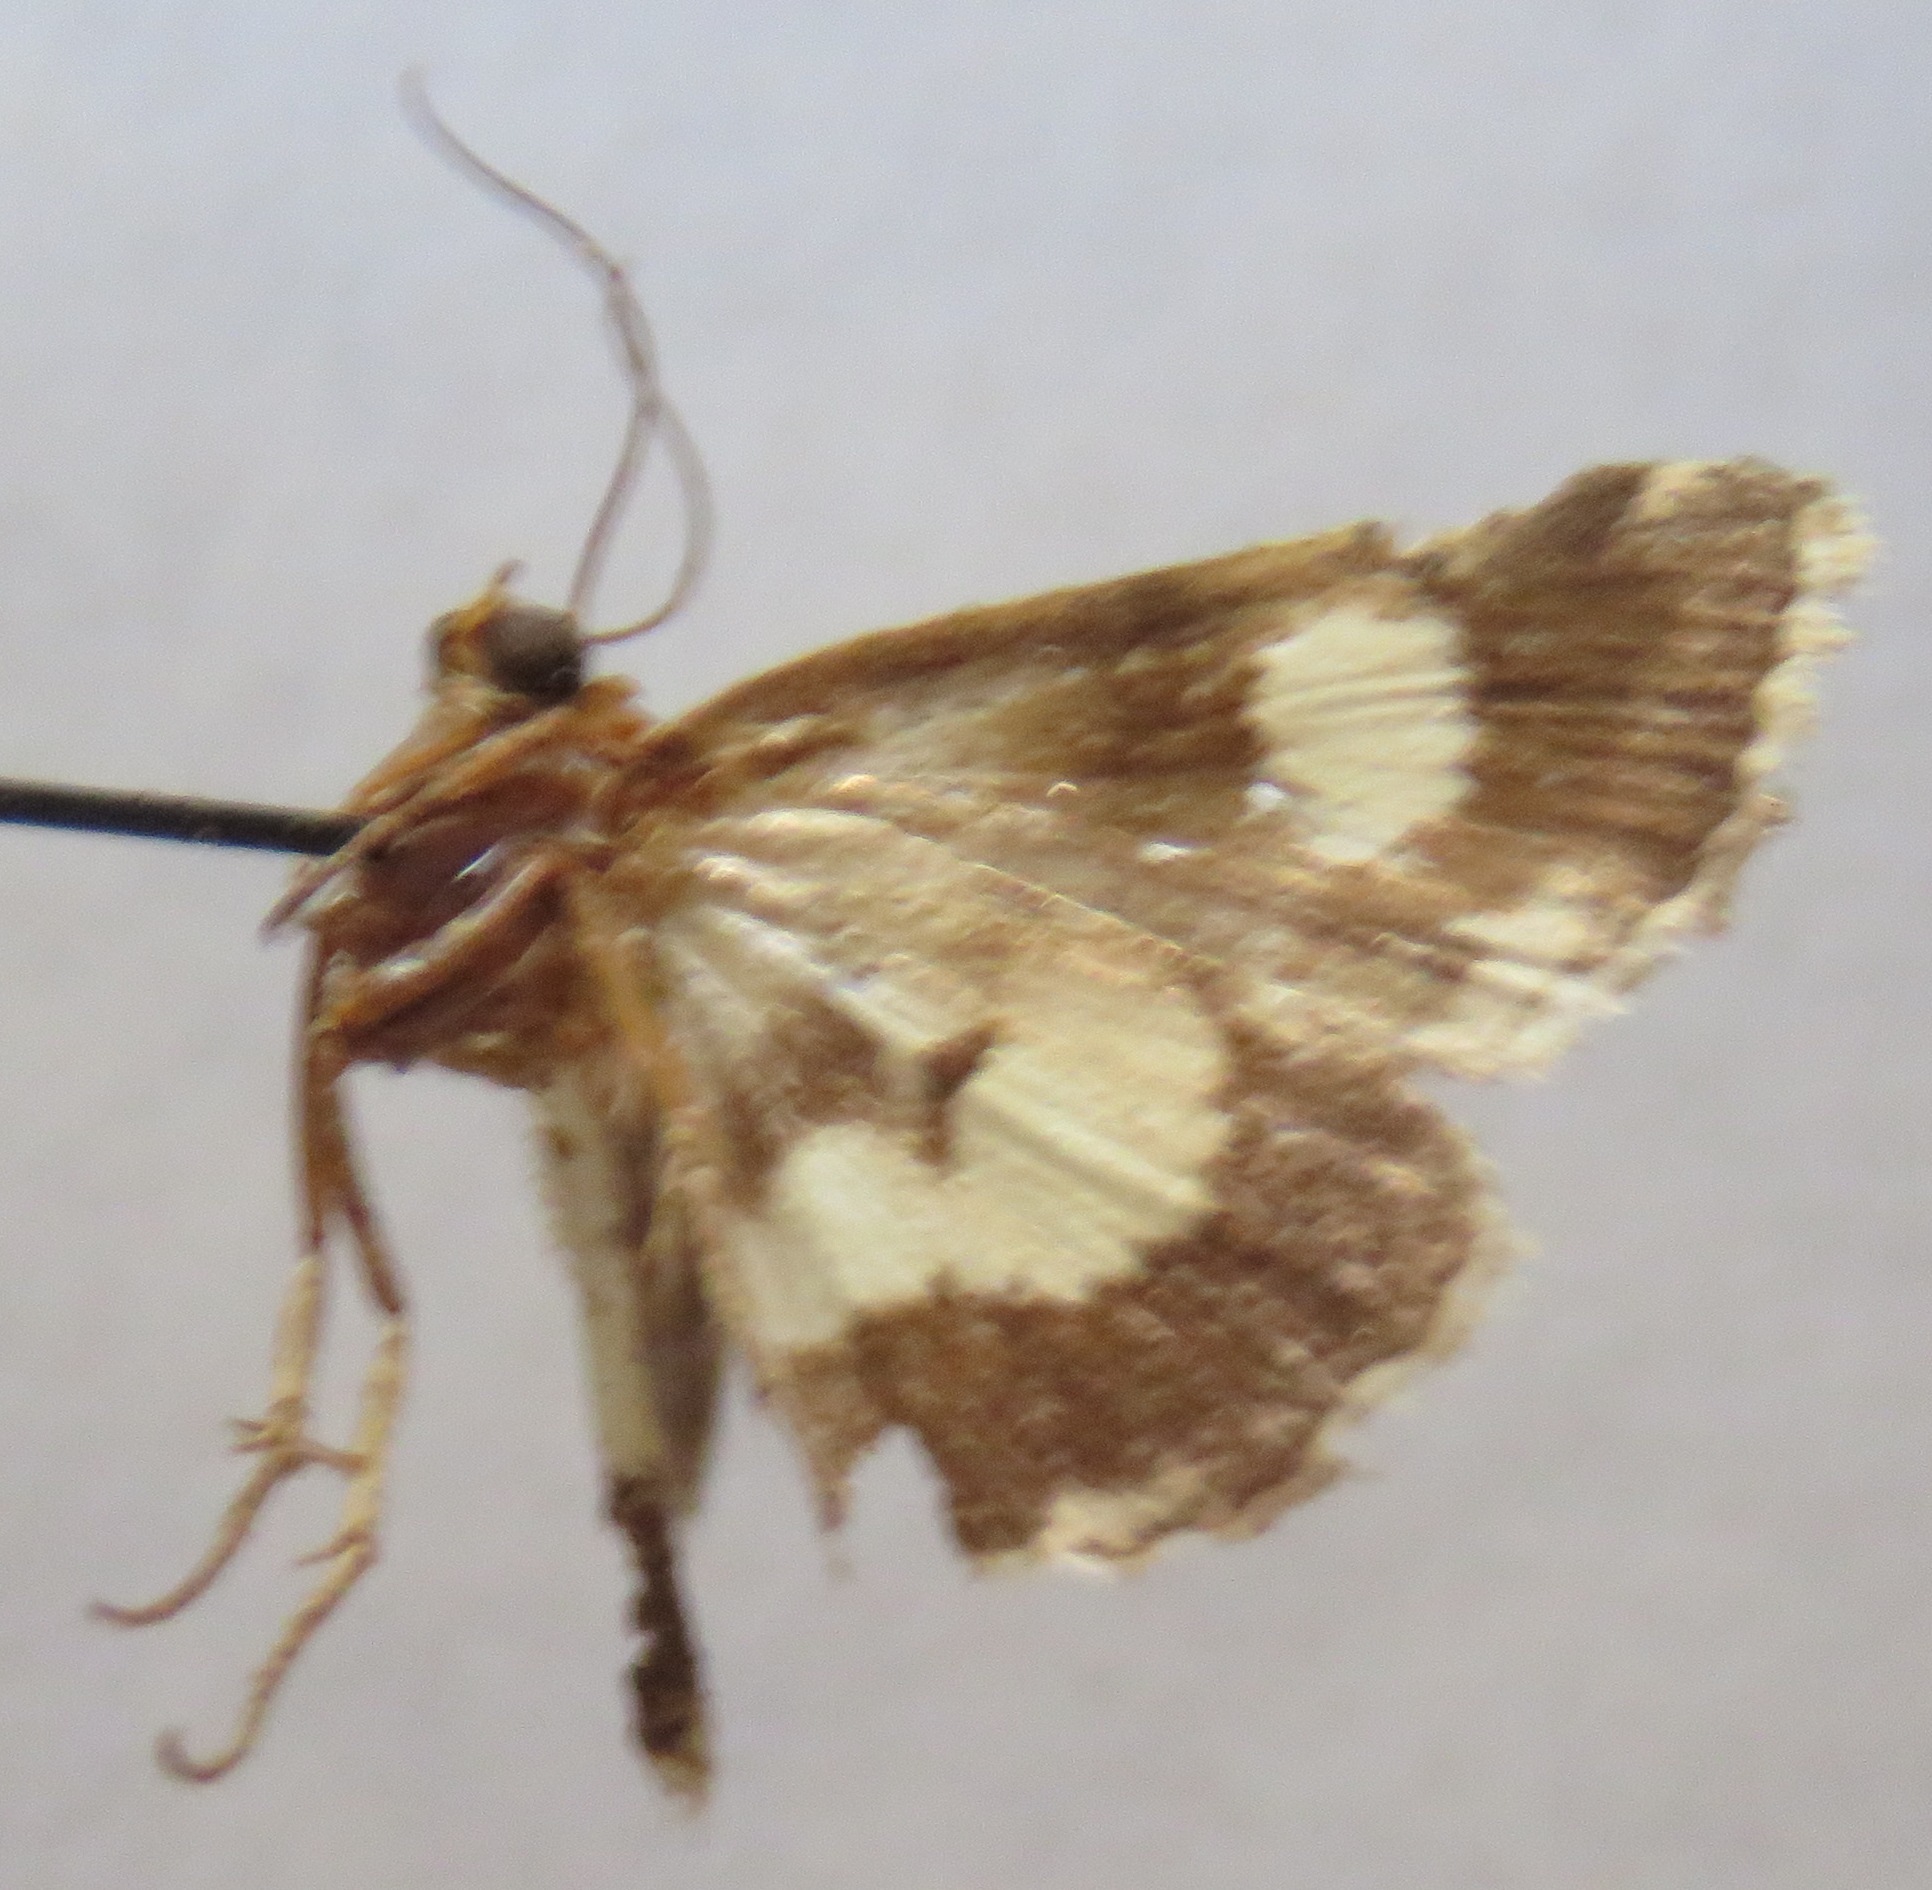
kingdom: Animalia
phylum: Arthropoda
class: Insecta
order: Lepidoptera
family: Erebidae
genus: Tyta
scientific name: Tyta luctuosa
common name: Four-spotted
